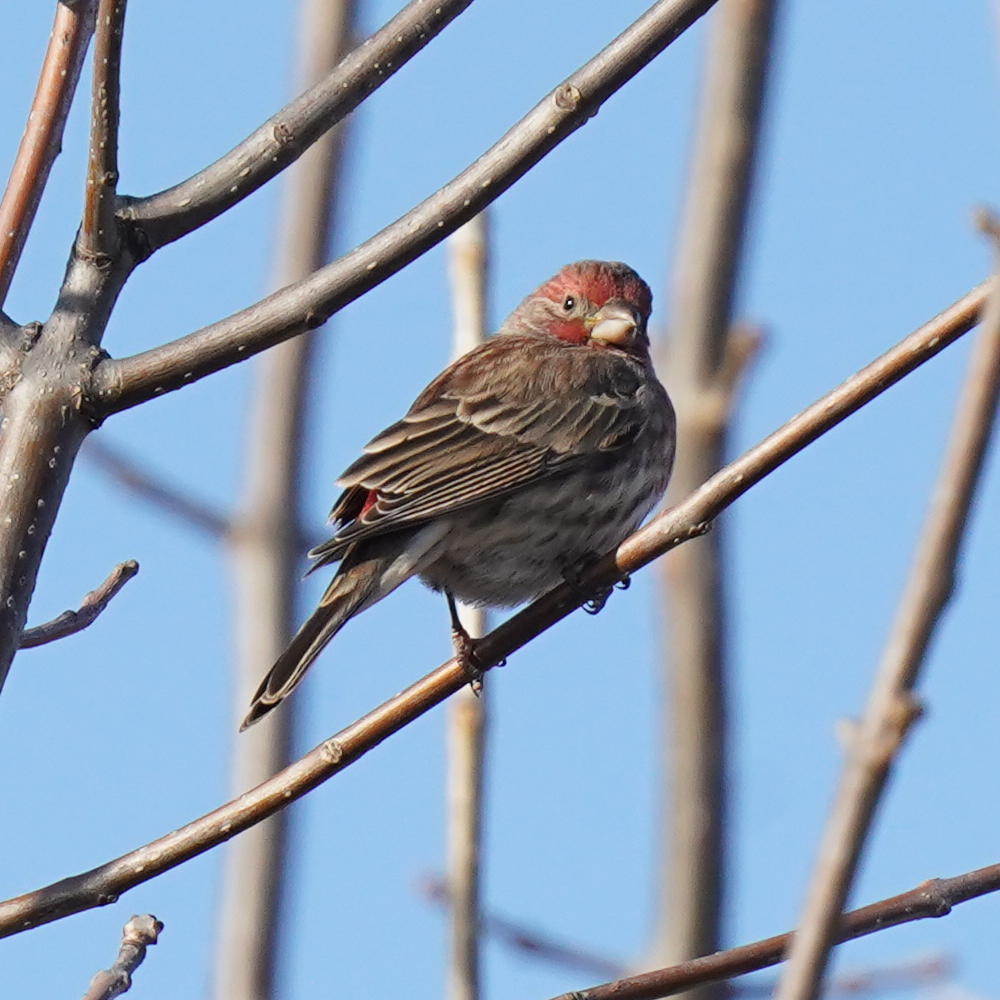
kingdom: Animalia
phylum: Chordata
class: Aves
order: Passeriformes
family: Fringillidae
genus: Haemorhous
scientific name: Haemorhous mexicanus
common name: House finch
